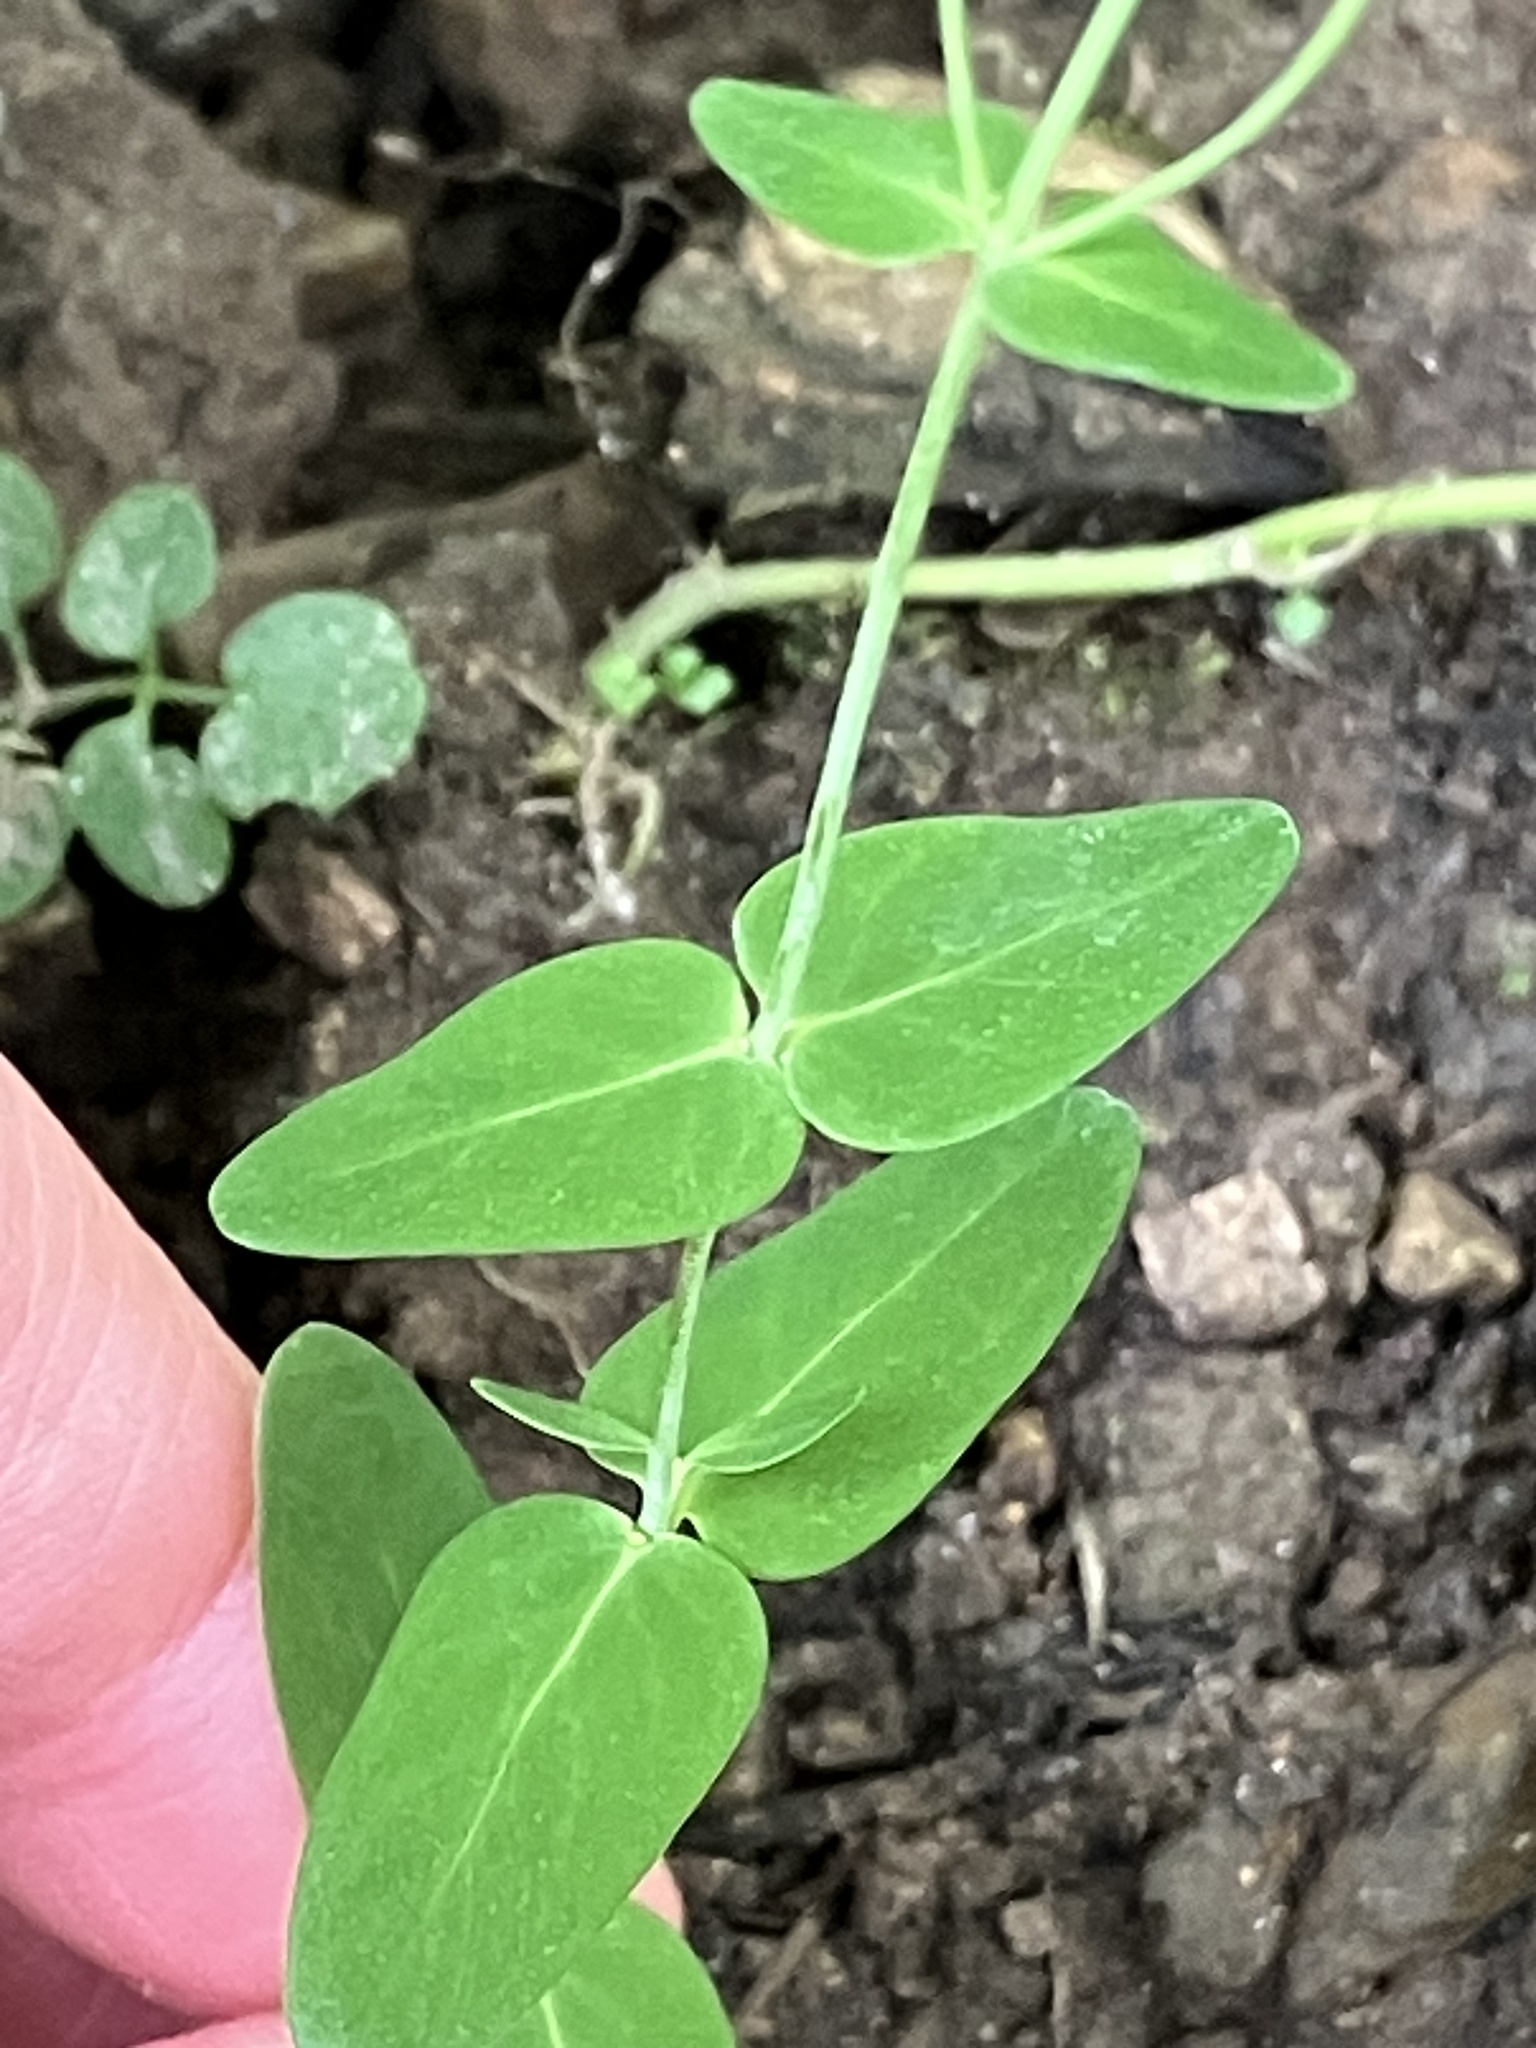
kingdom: Plantae
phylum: Tracheophyta
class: Magnoliopsida
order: Malpighiales
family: Hypericaceae
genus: Hypericum
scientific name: Hypericum pulchrum
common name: Slender st. john's-wort
